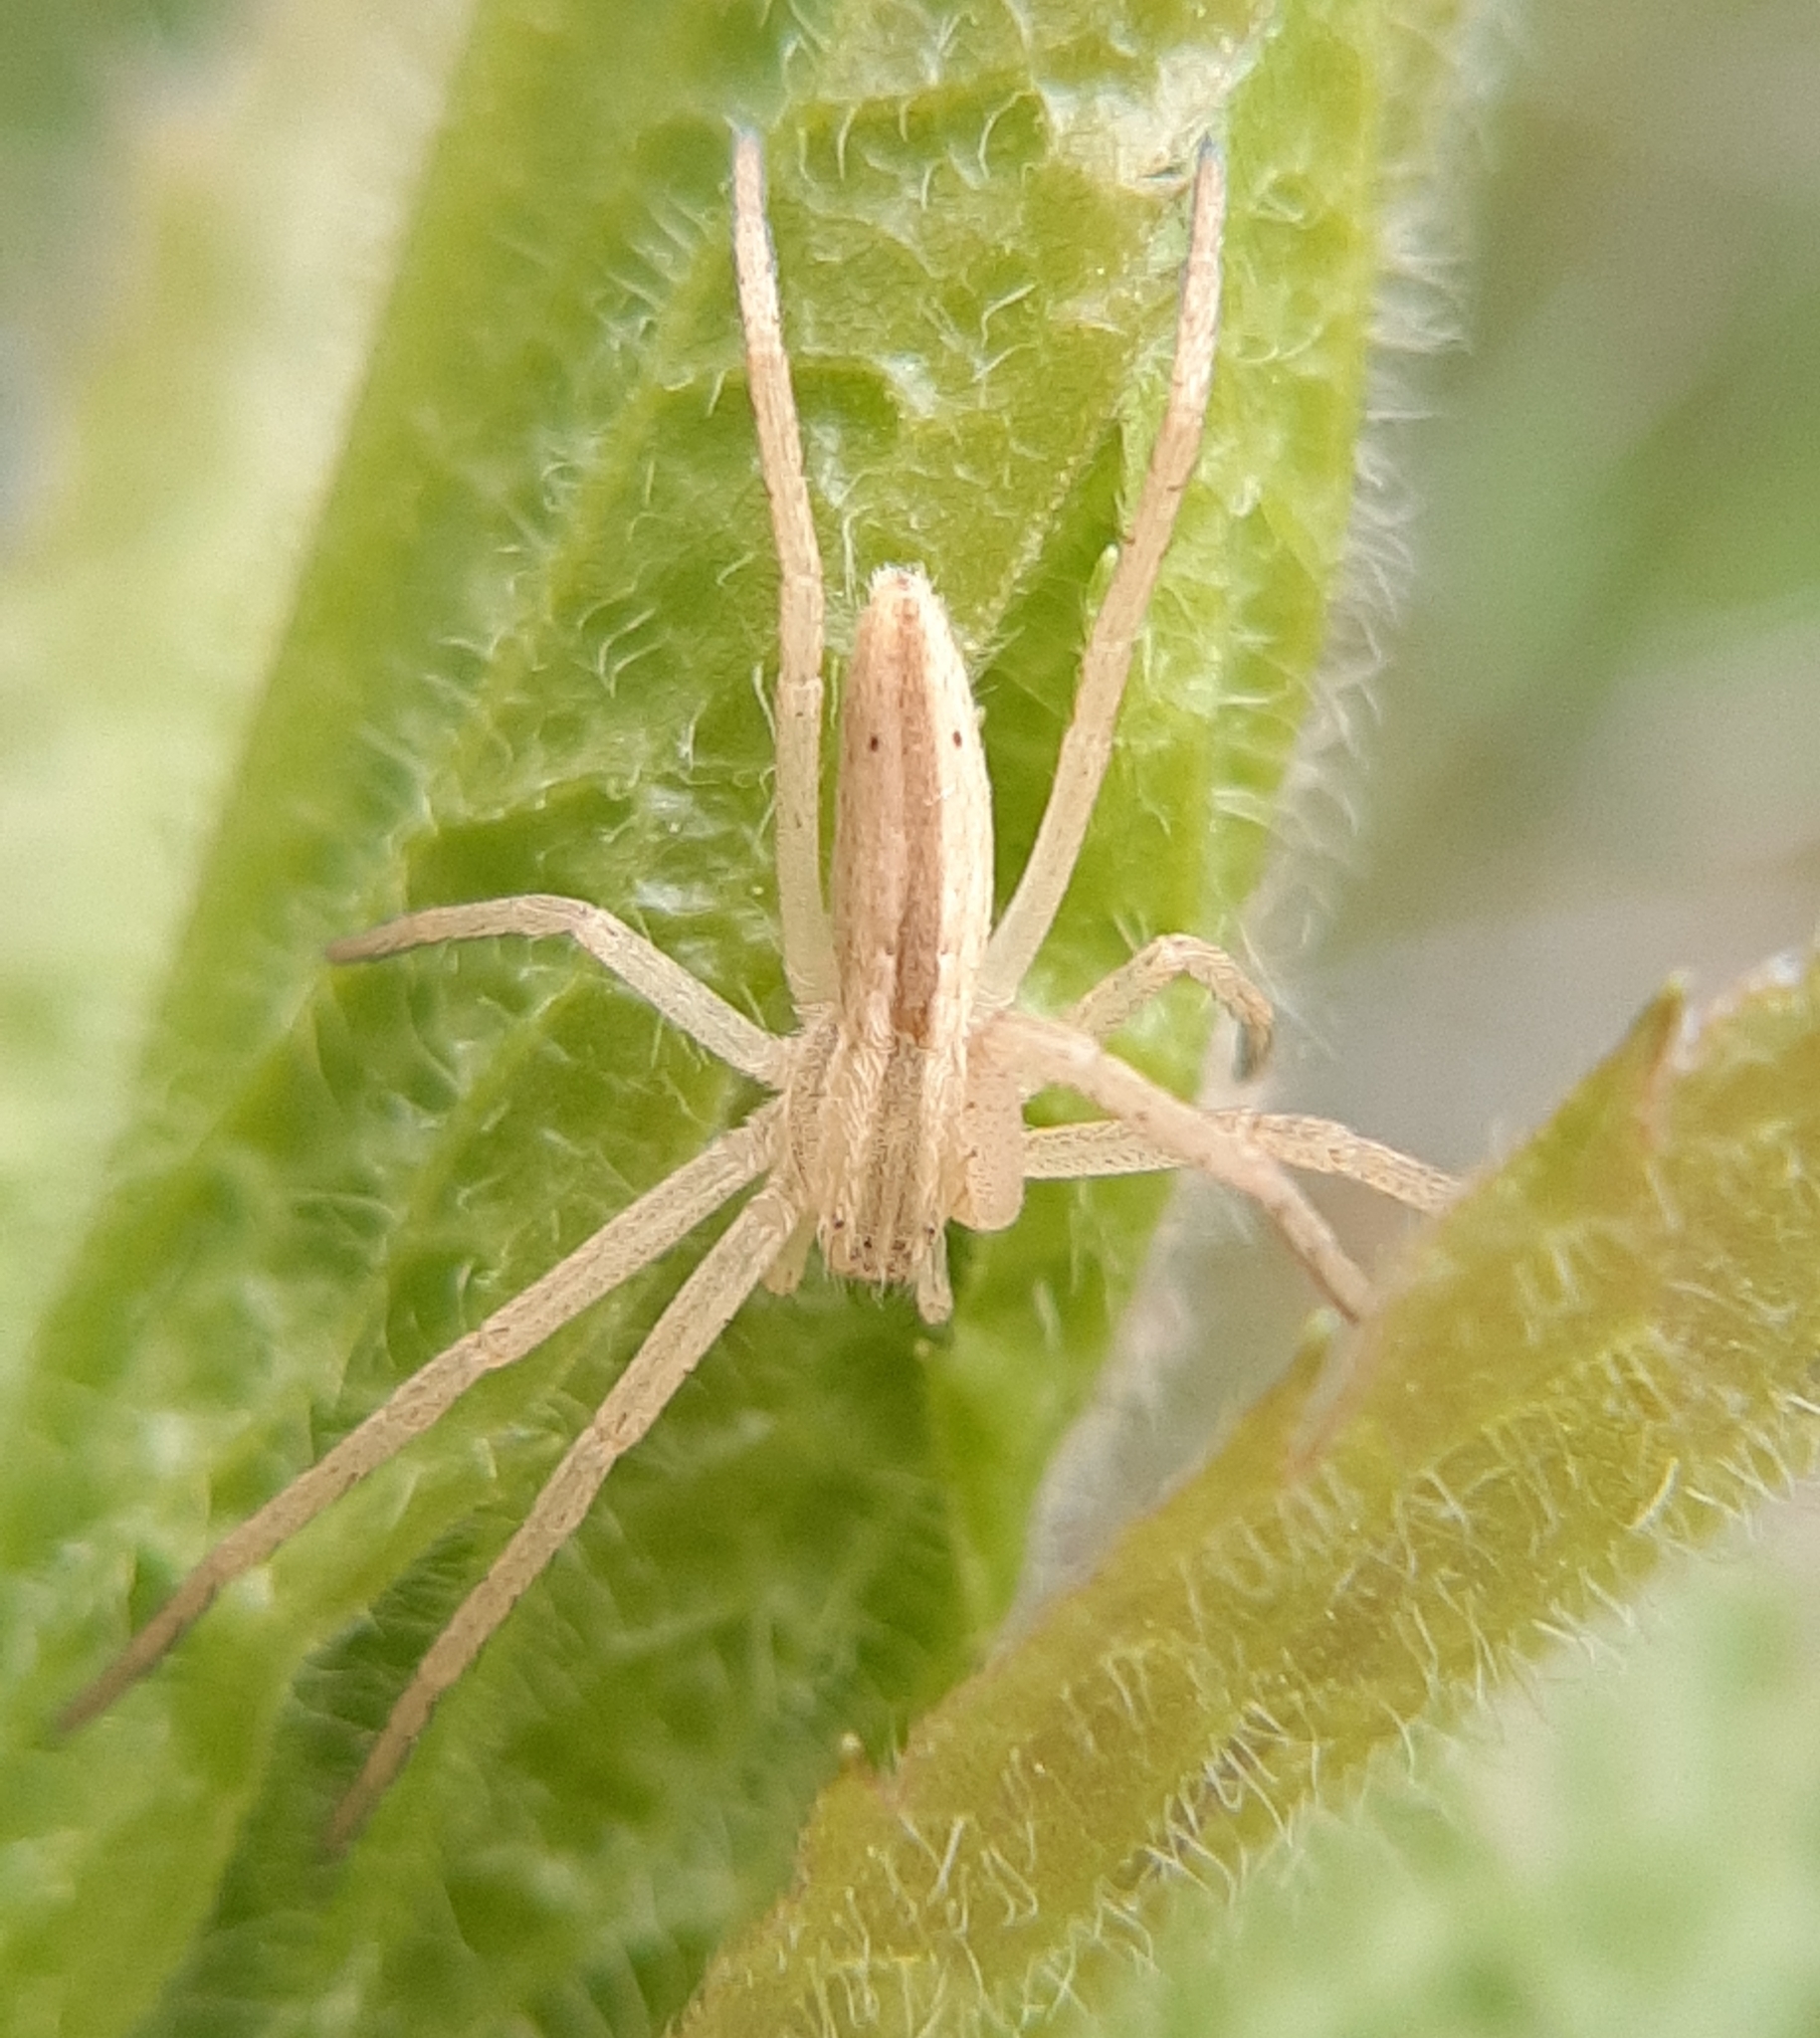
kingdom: Animalia
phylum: Arthropoda
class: Arachnida
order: Araneae
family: Philodromidae
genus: Tibellus
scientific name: Tibellus oblongus
